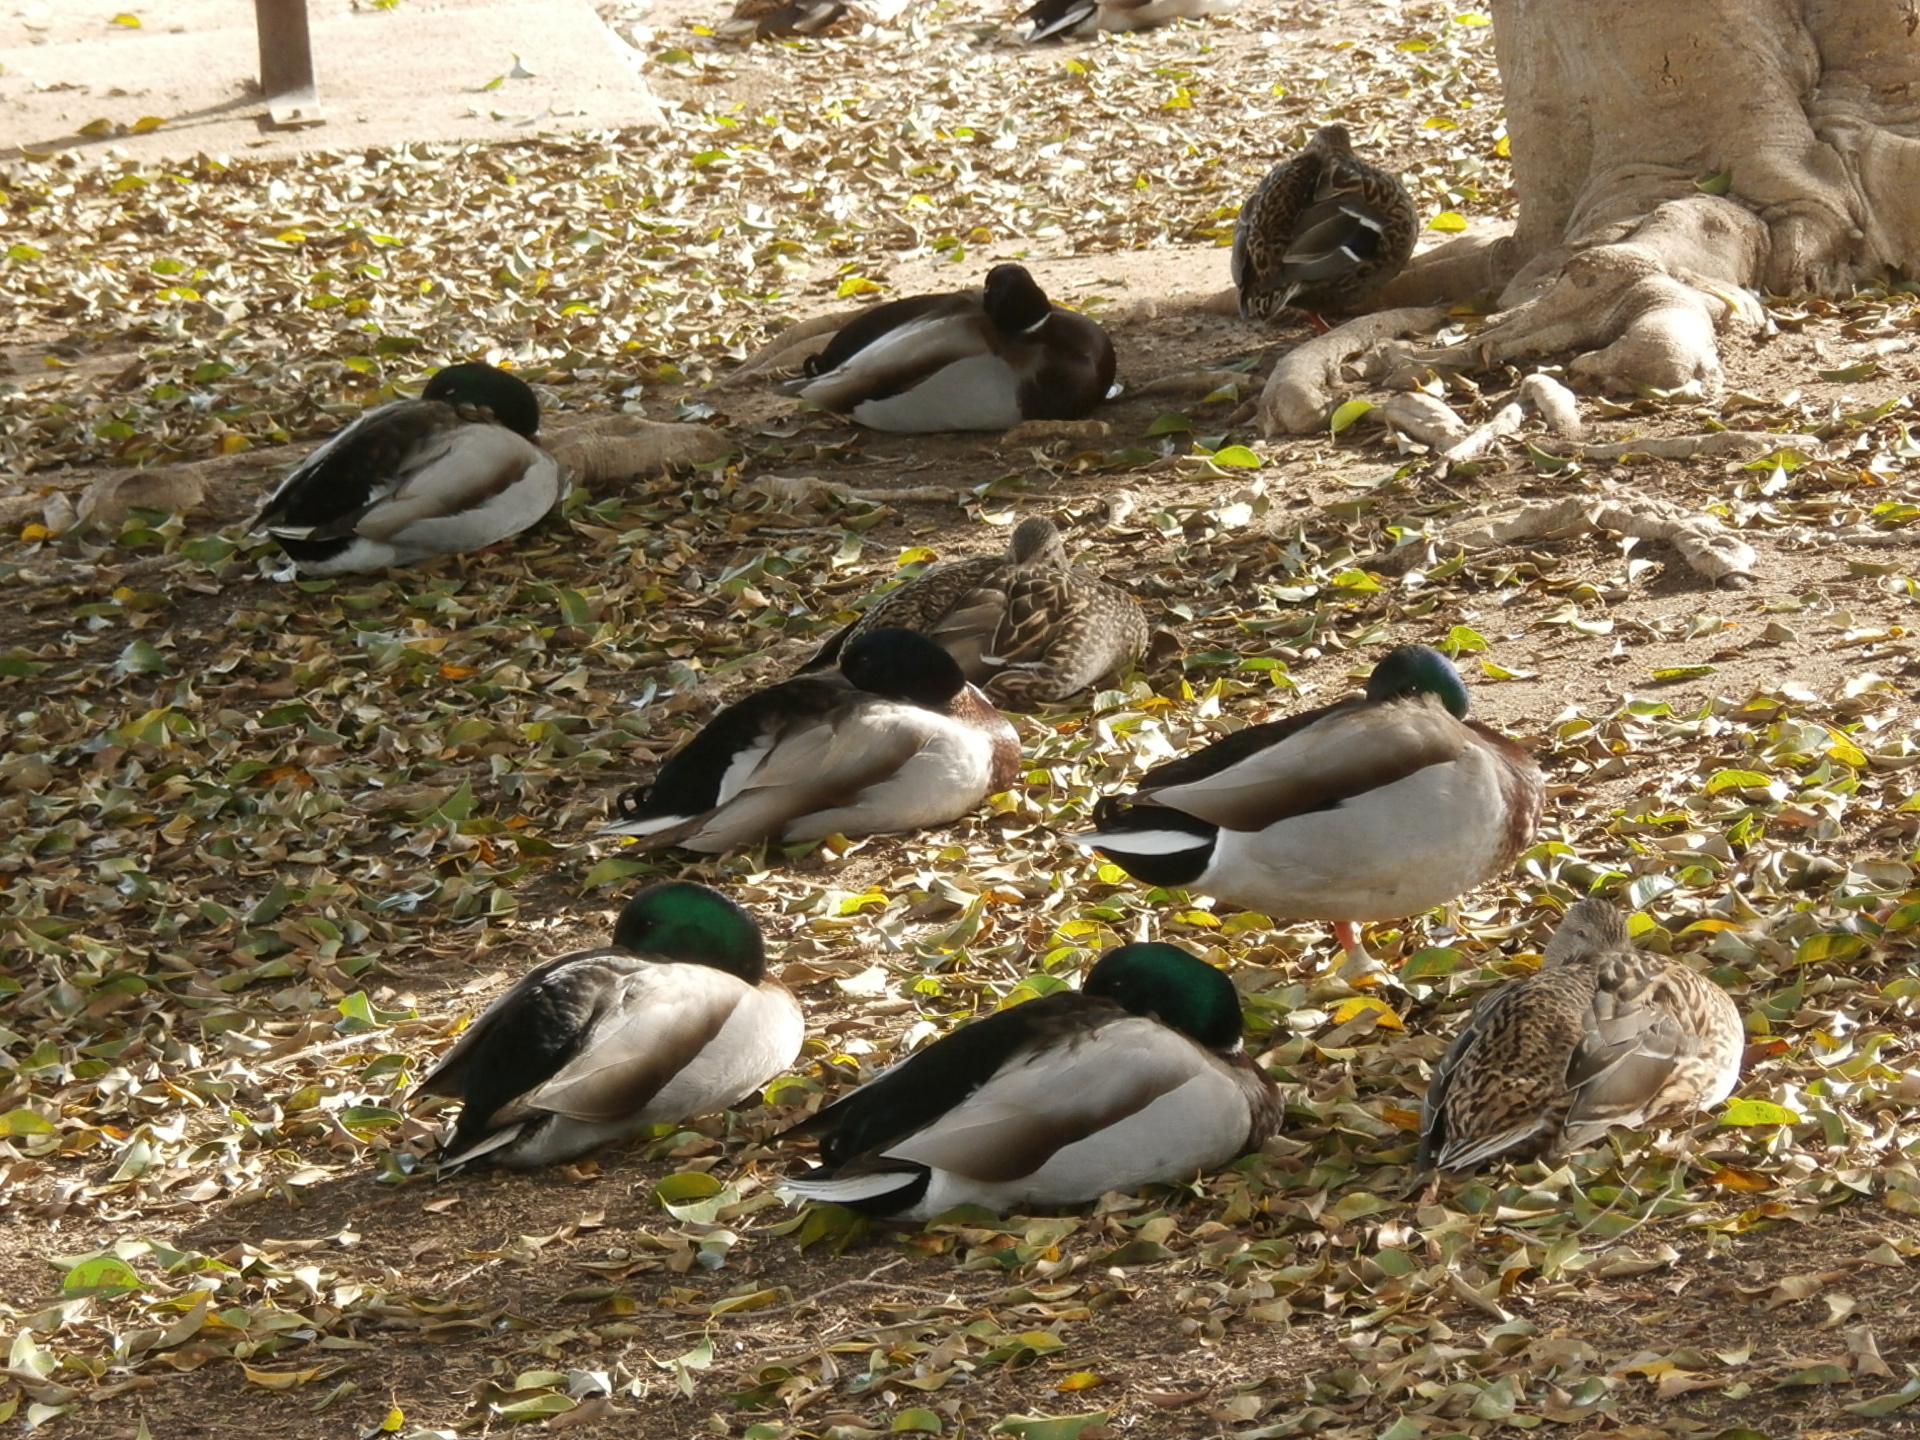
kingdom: Animalia
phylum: Chordata
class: Aves
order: Anseriformes
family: Anatidae
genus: Anas
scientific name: Anas platyrhynchos
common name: Mallard
